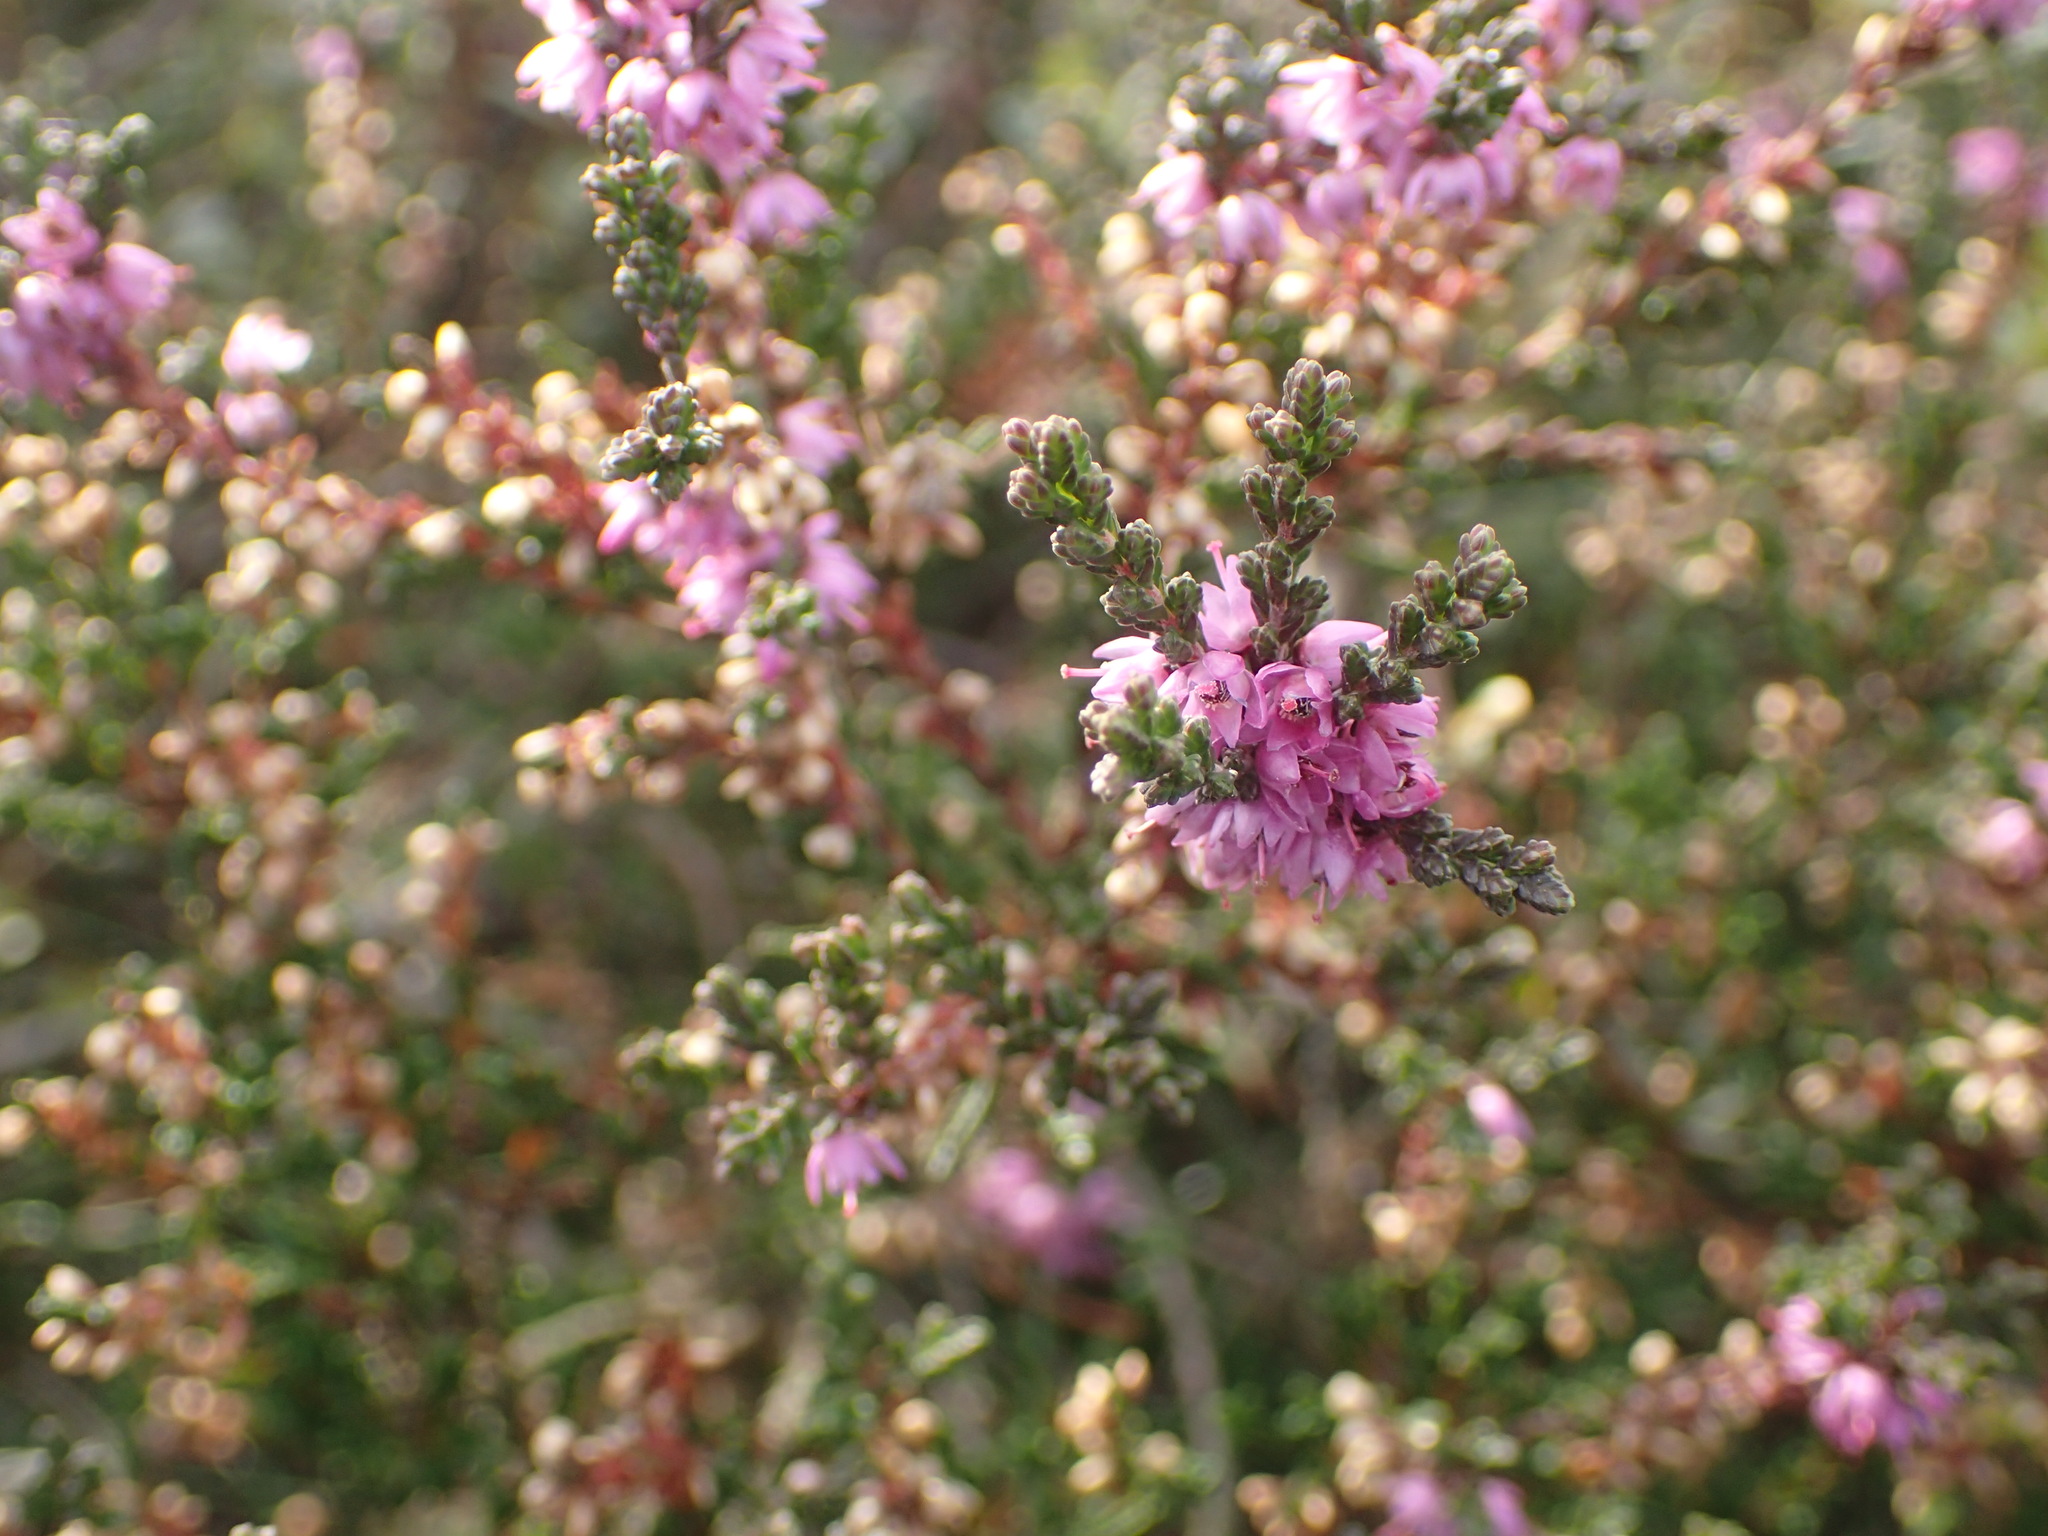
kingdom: Plantae
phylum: Tracheophyta
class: Magnoliopsida
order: Ericales
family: Ericaceae
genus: Calluna
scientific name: Calluna vulgaris
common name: Heather
